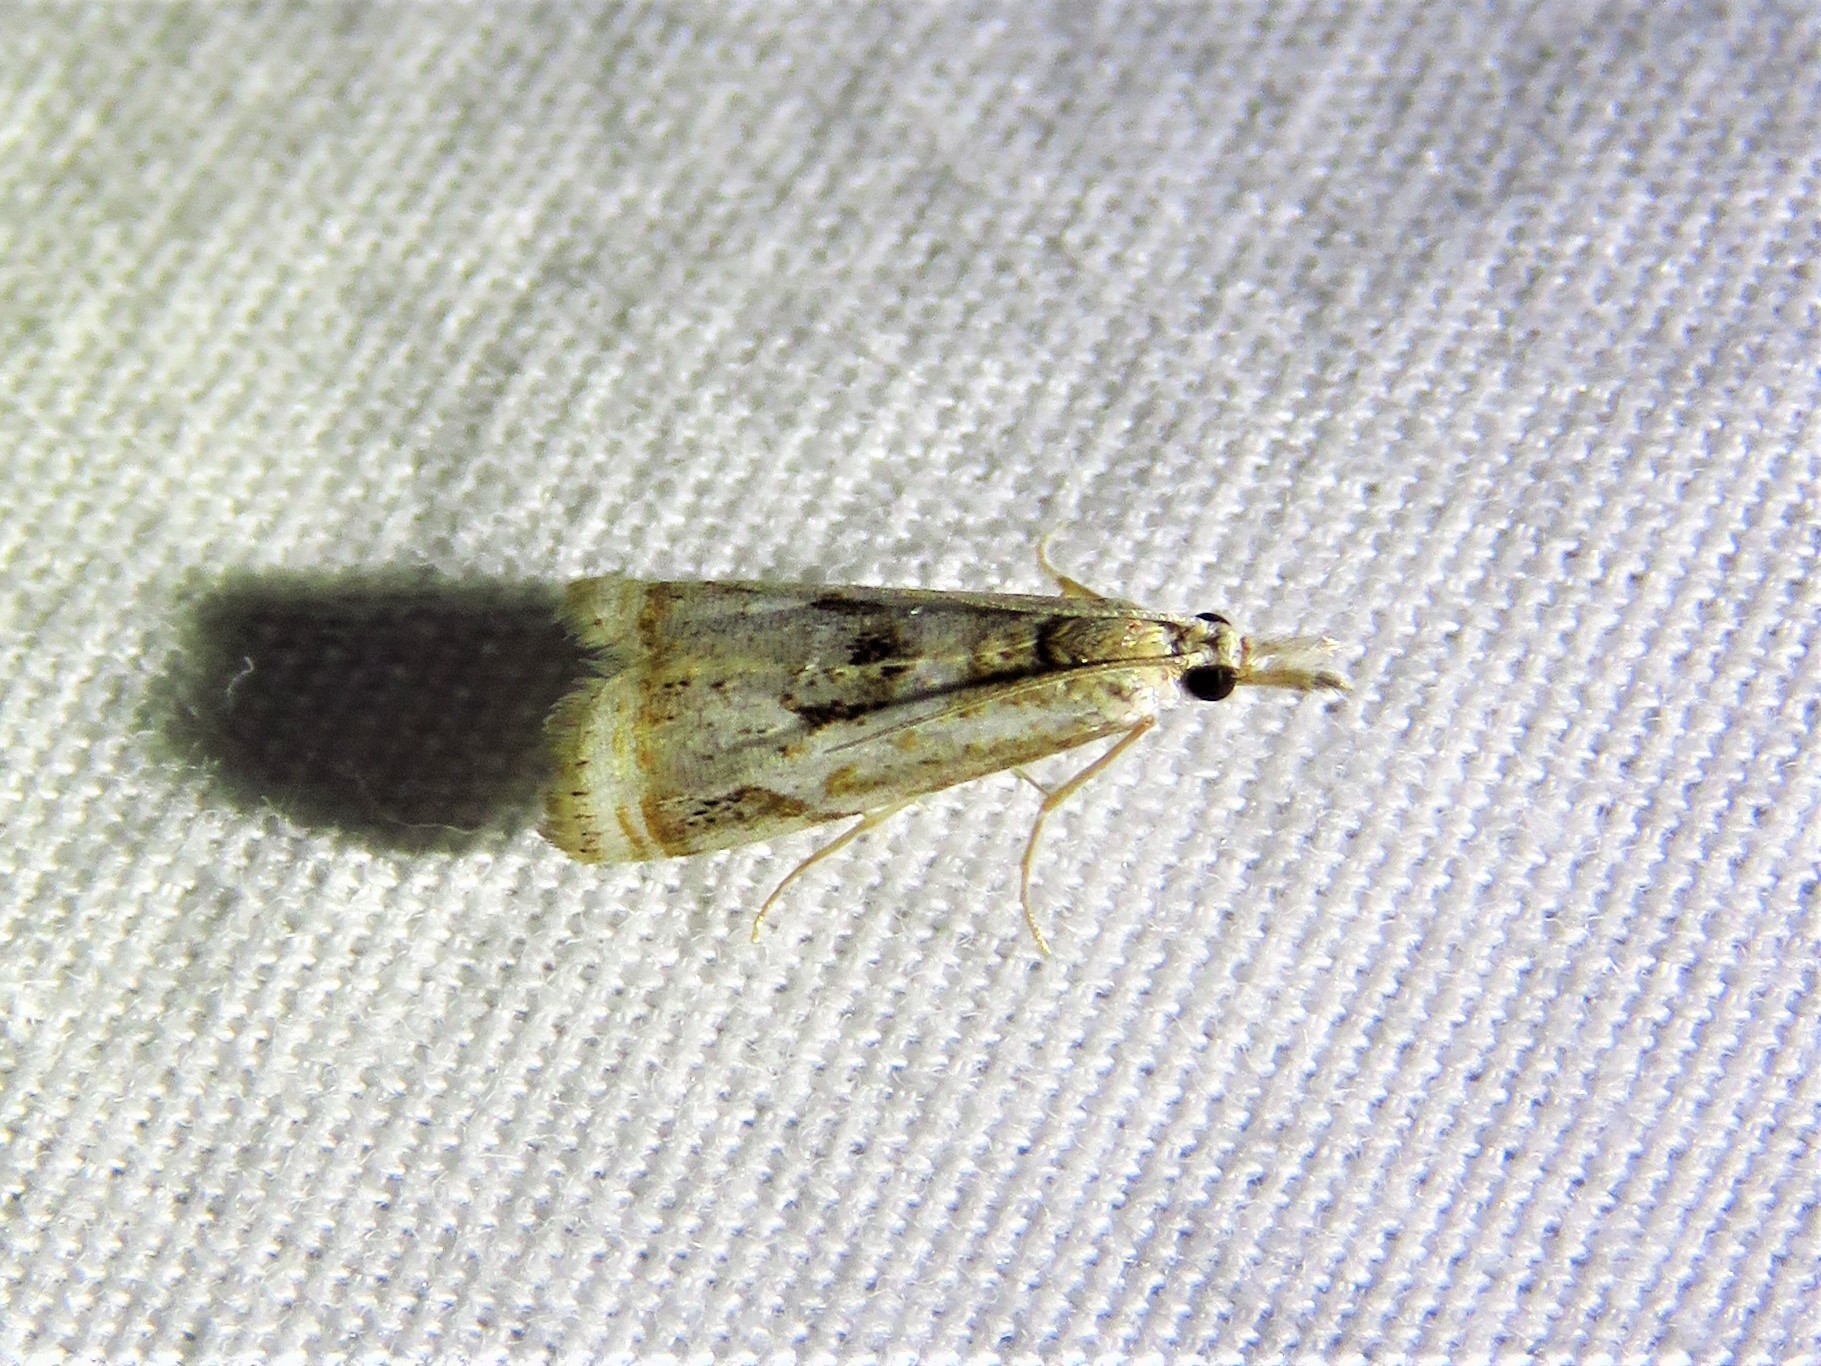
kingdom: Animalia
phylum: Arthropoda
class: Insecta
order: Lepidoptera
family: Crambidae
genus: Microcrambus
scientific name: Microcrambus elegans
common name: Elegant grass-veneer
